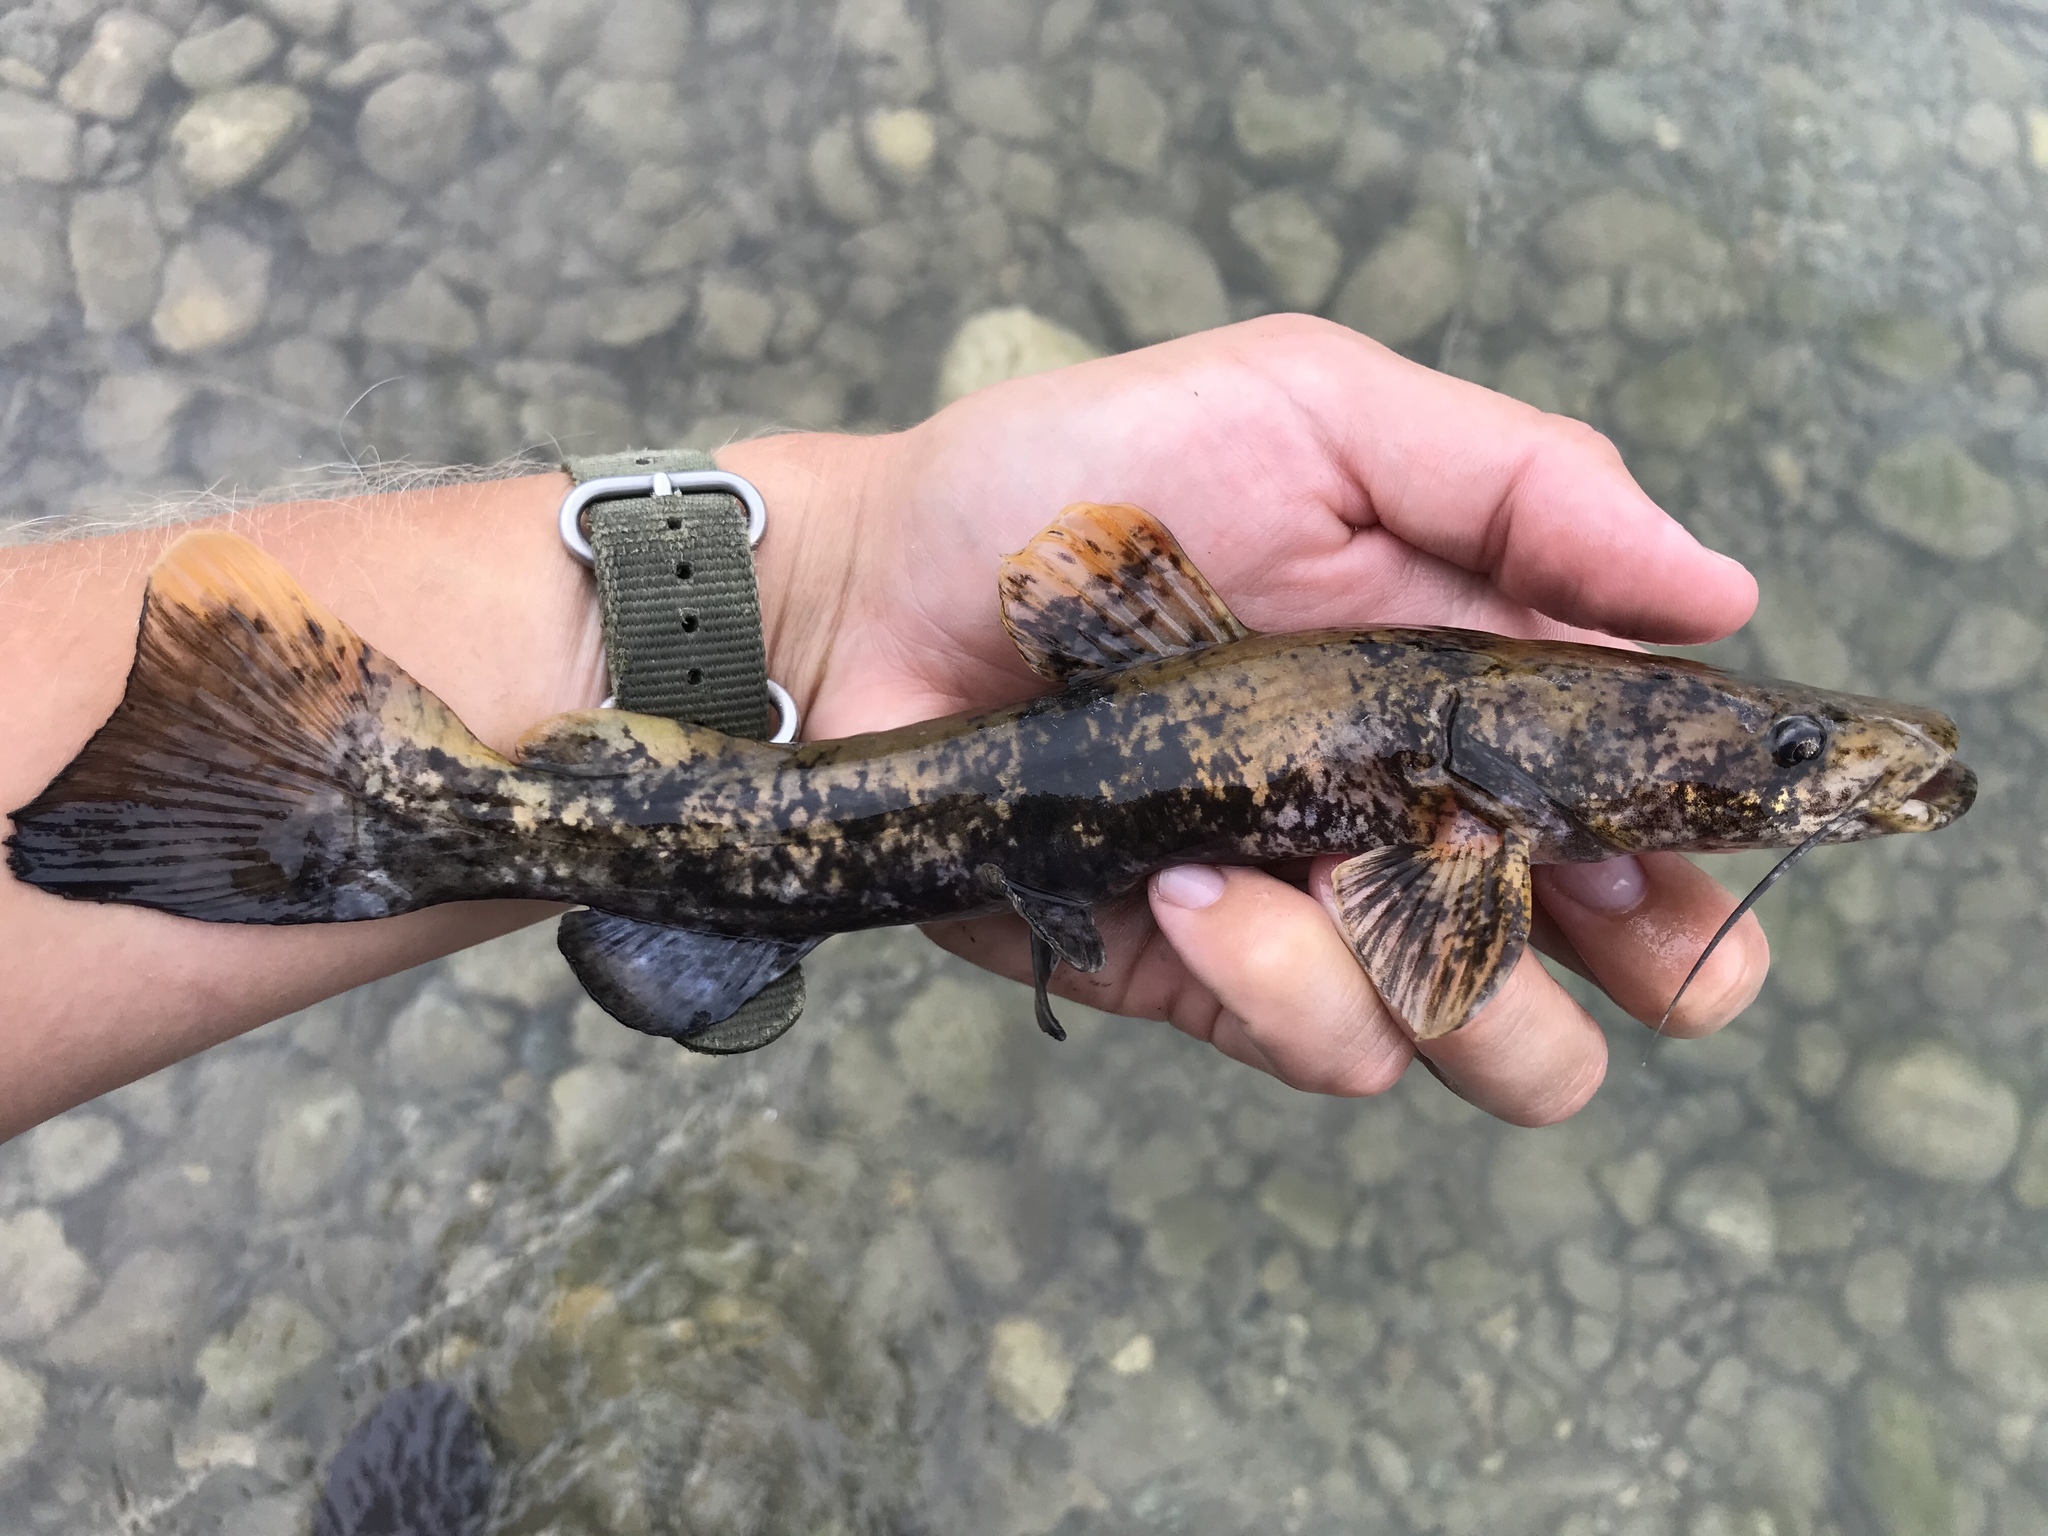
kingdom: Animalia
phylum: Chordata
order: Siluriformes
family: Ictaluridae
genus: Pylodictis
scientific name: Pylodictis olivaris
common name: Flathead catfish
